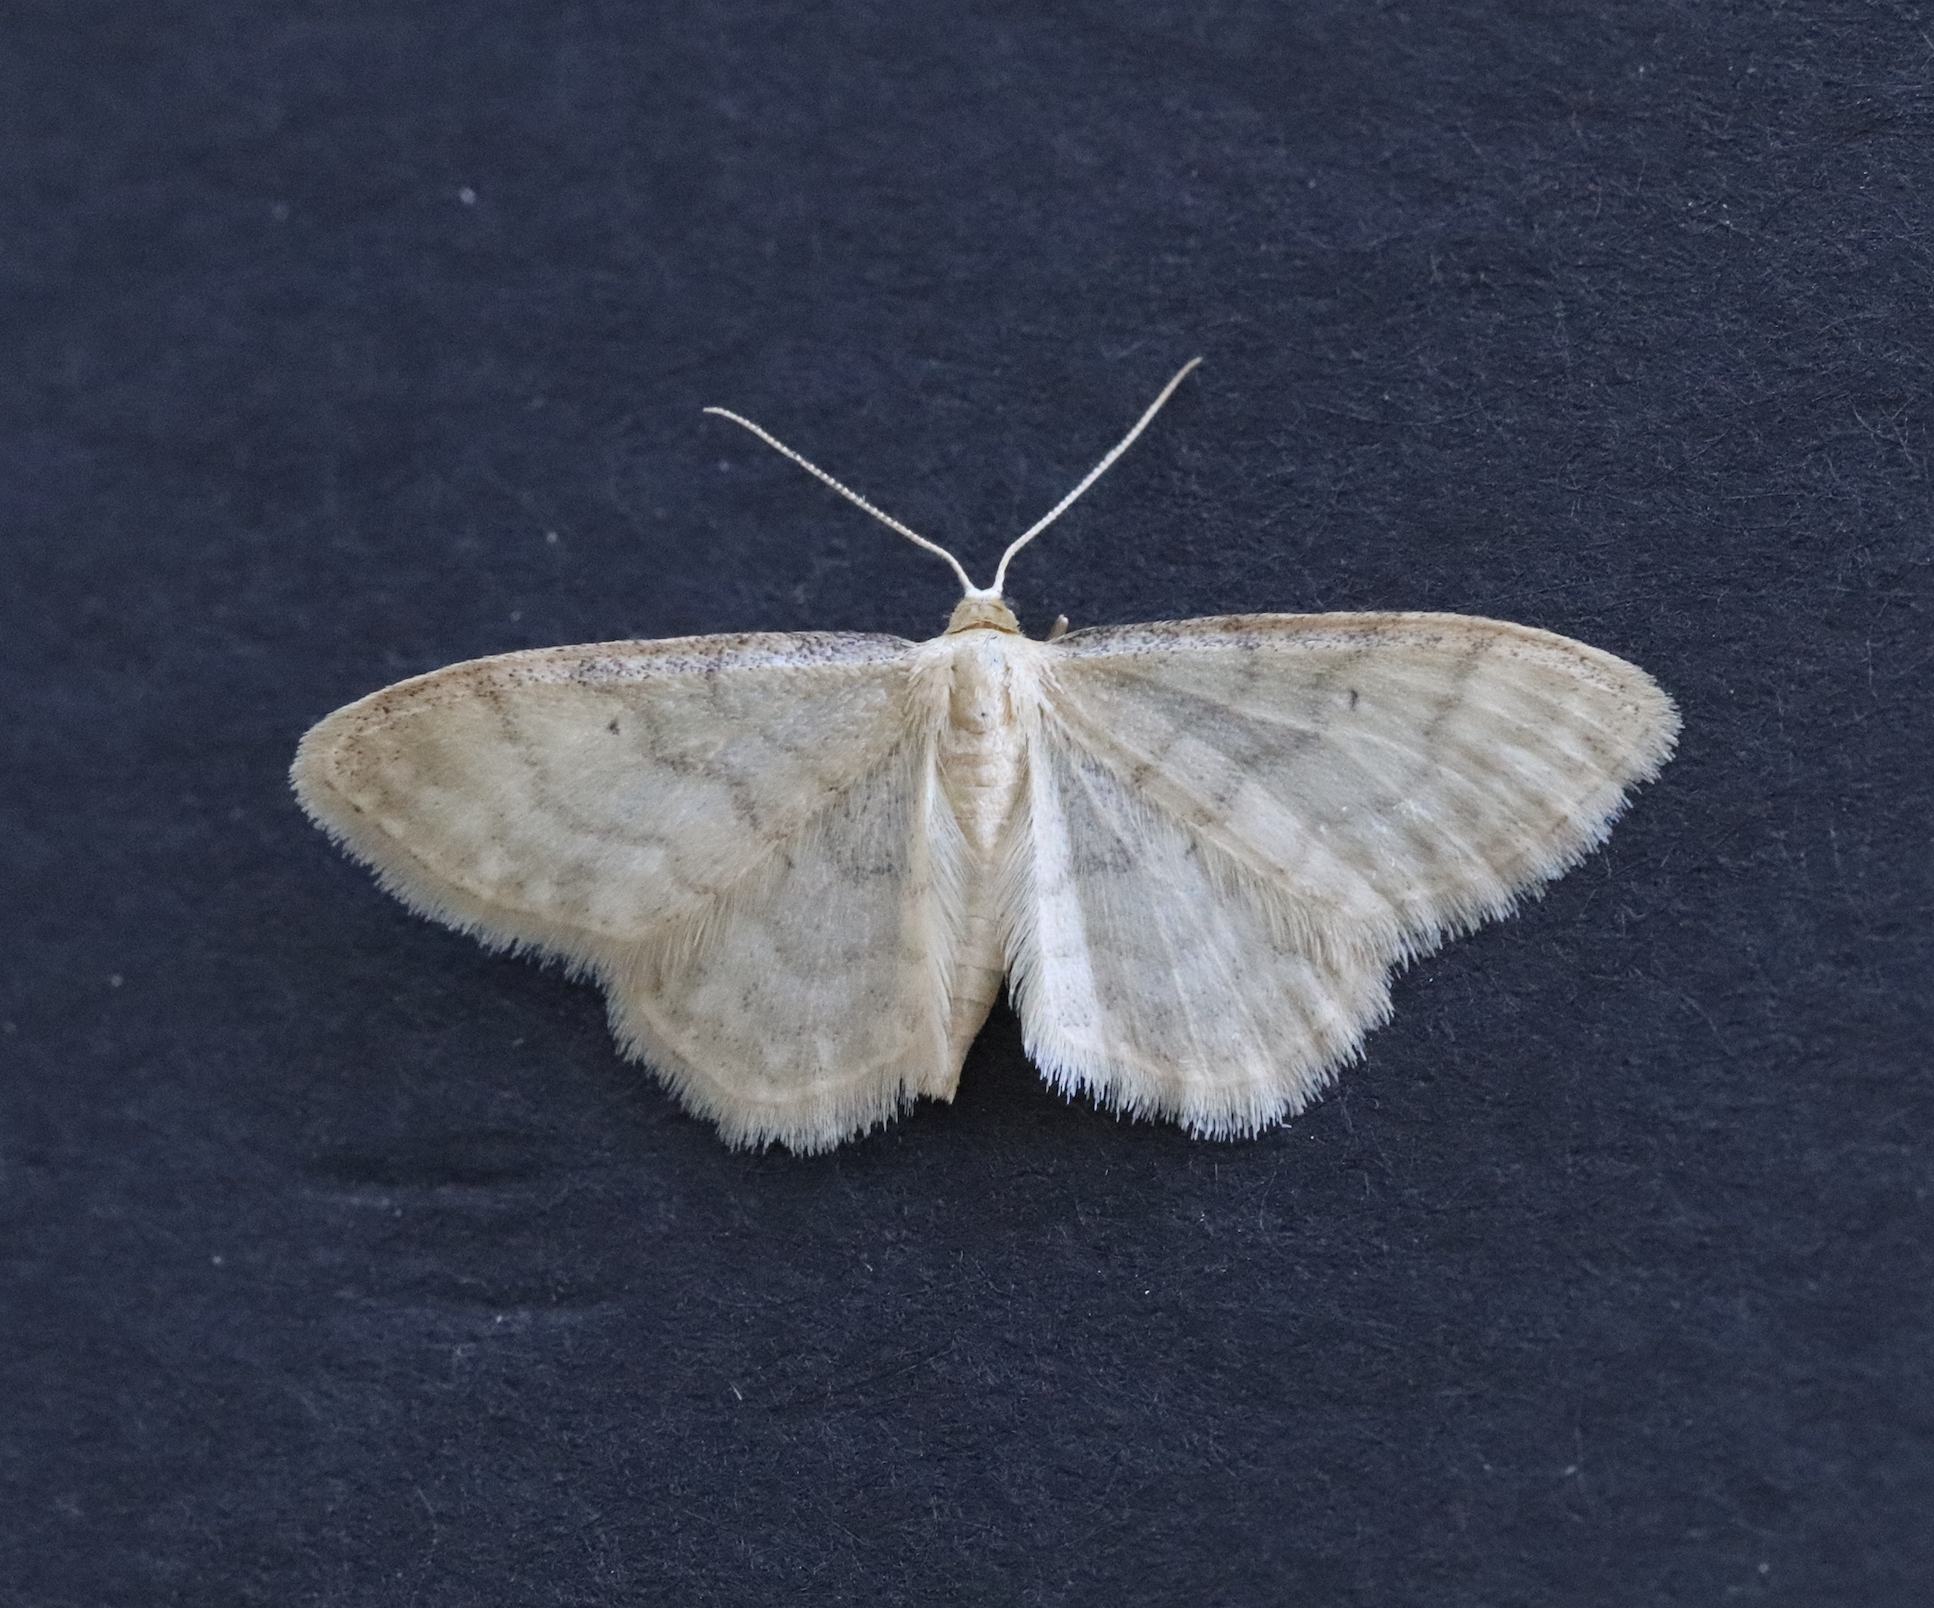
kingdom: Animalia
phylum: Arthropoda
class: Insecta
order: Lepidoptera
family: Geometridae
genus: Idaea
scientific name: Idaea dilutaria
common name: Silky wave
